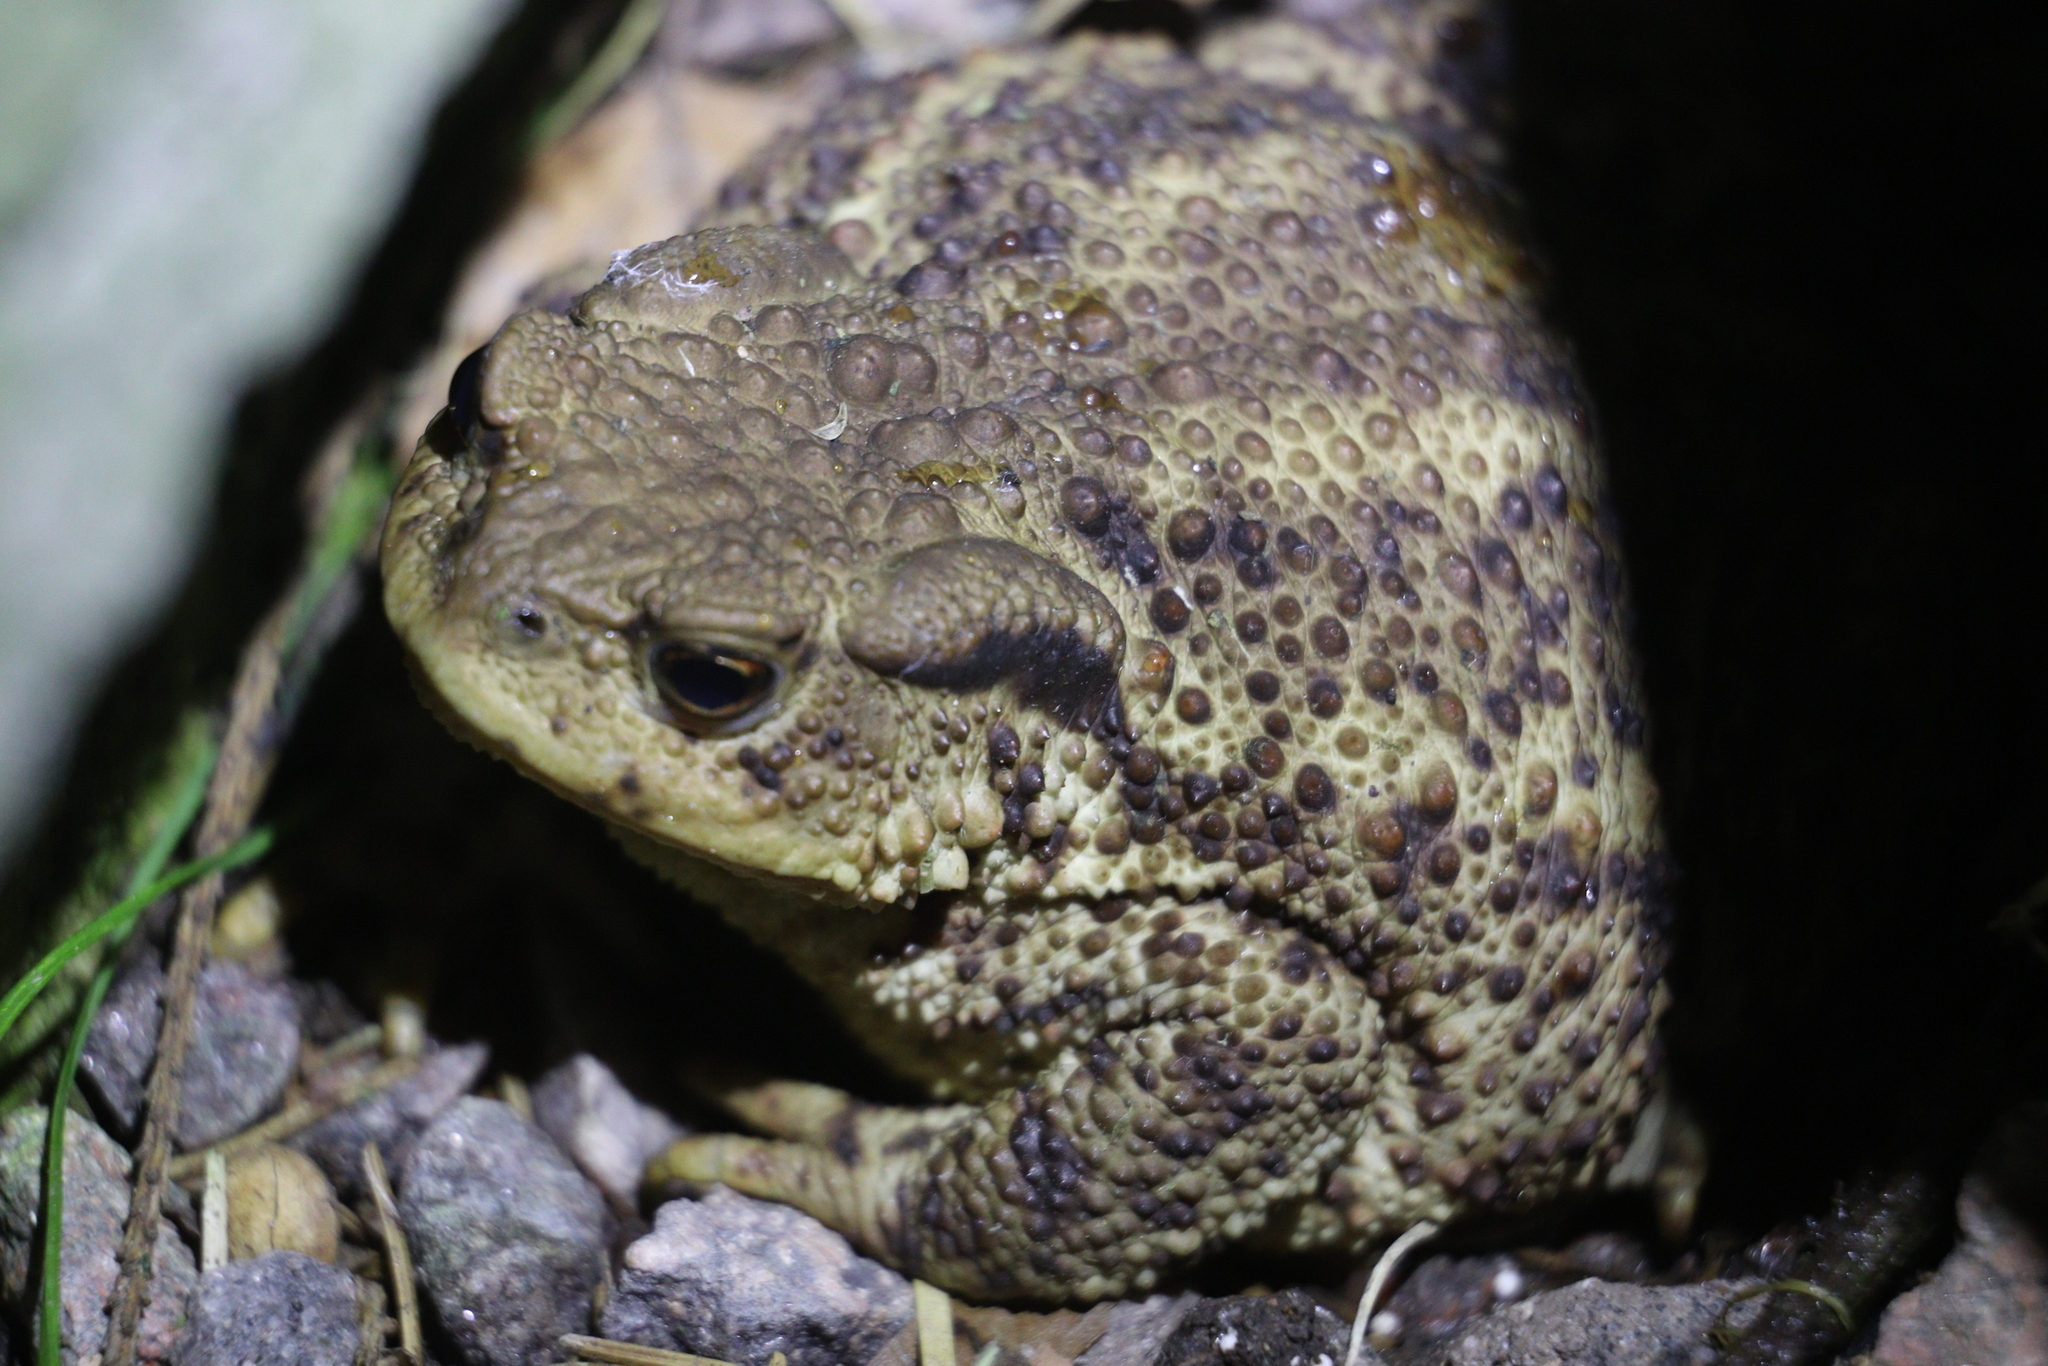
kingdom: Animalia
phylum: Chordata
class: Amphibia
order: Anura
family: Bufonidae
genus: Bufo
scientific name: Bufo bufo
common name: Common toad
